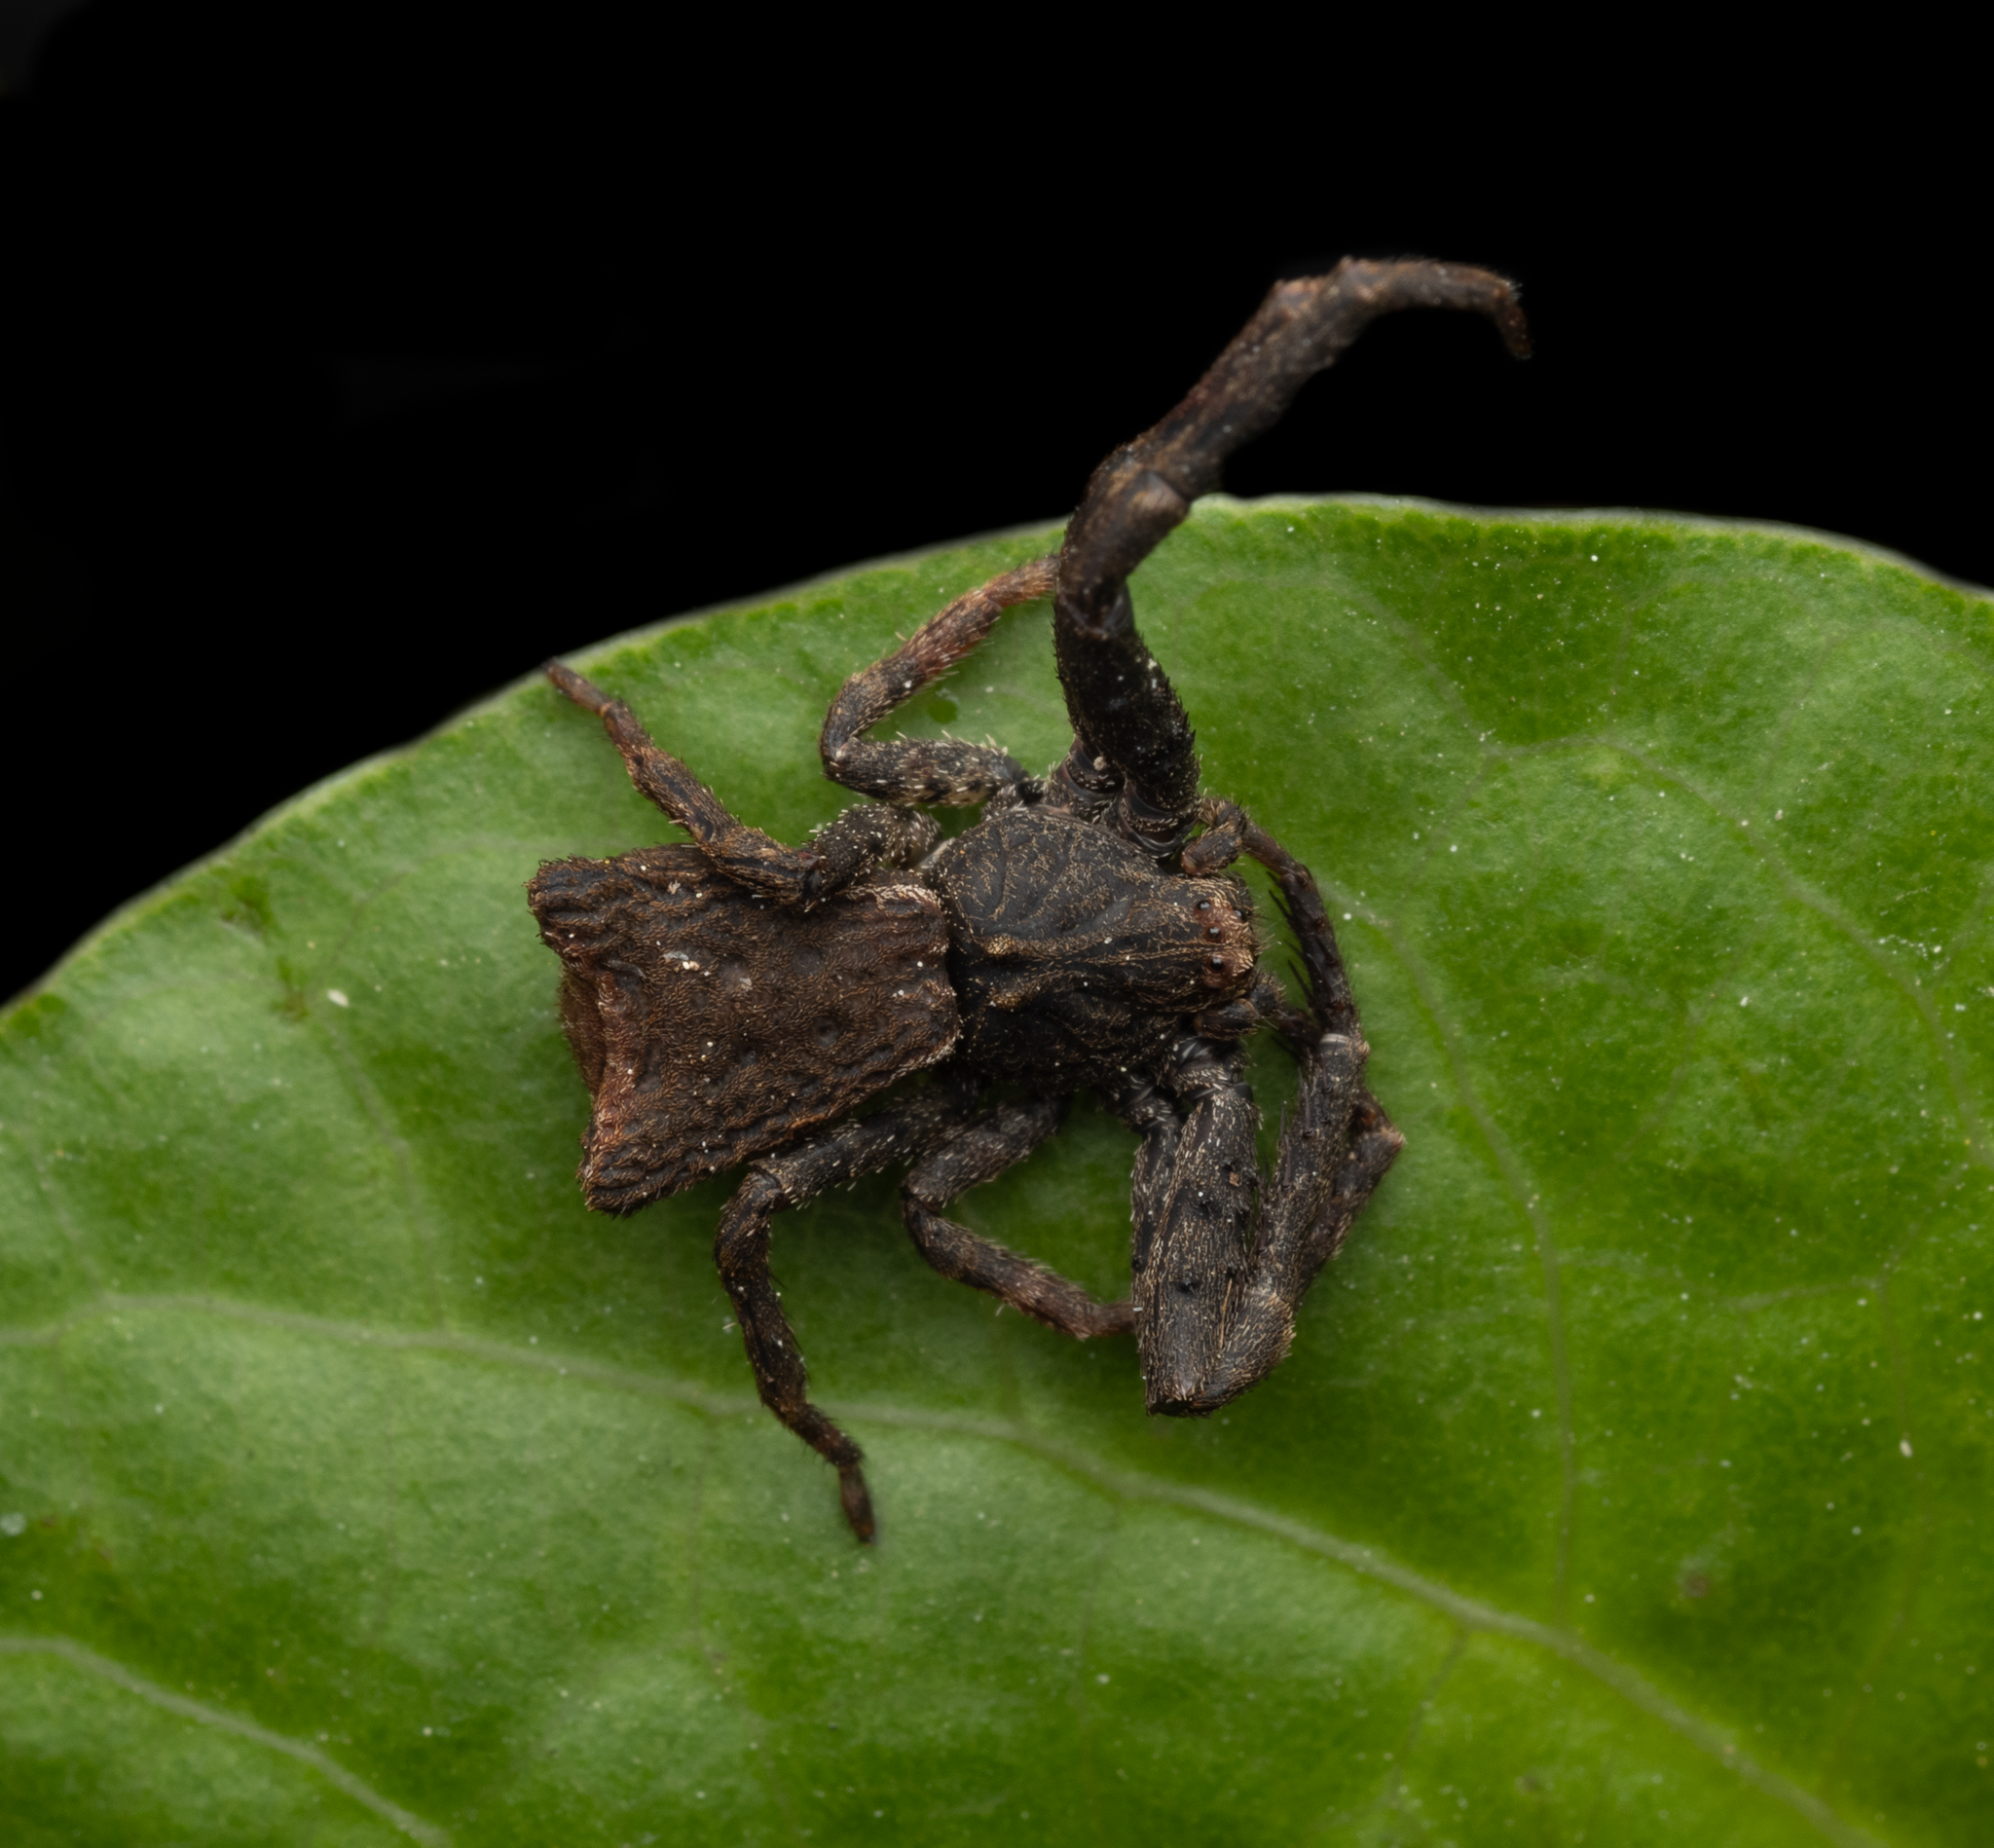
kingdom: Animalia
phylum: Arthropoda
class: Arachnida
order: Araneae
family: Thomisidae
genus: Sidymella
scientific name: Sidymella angularis
